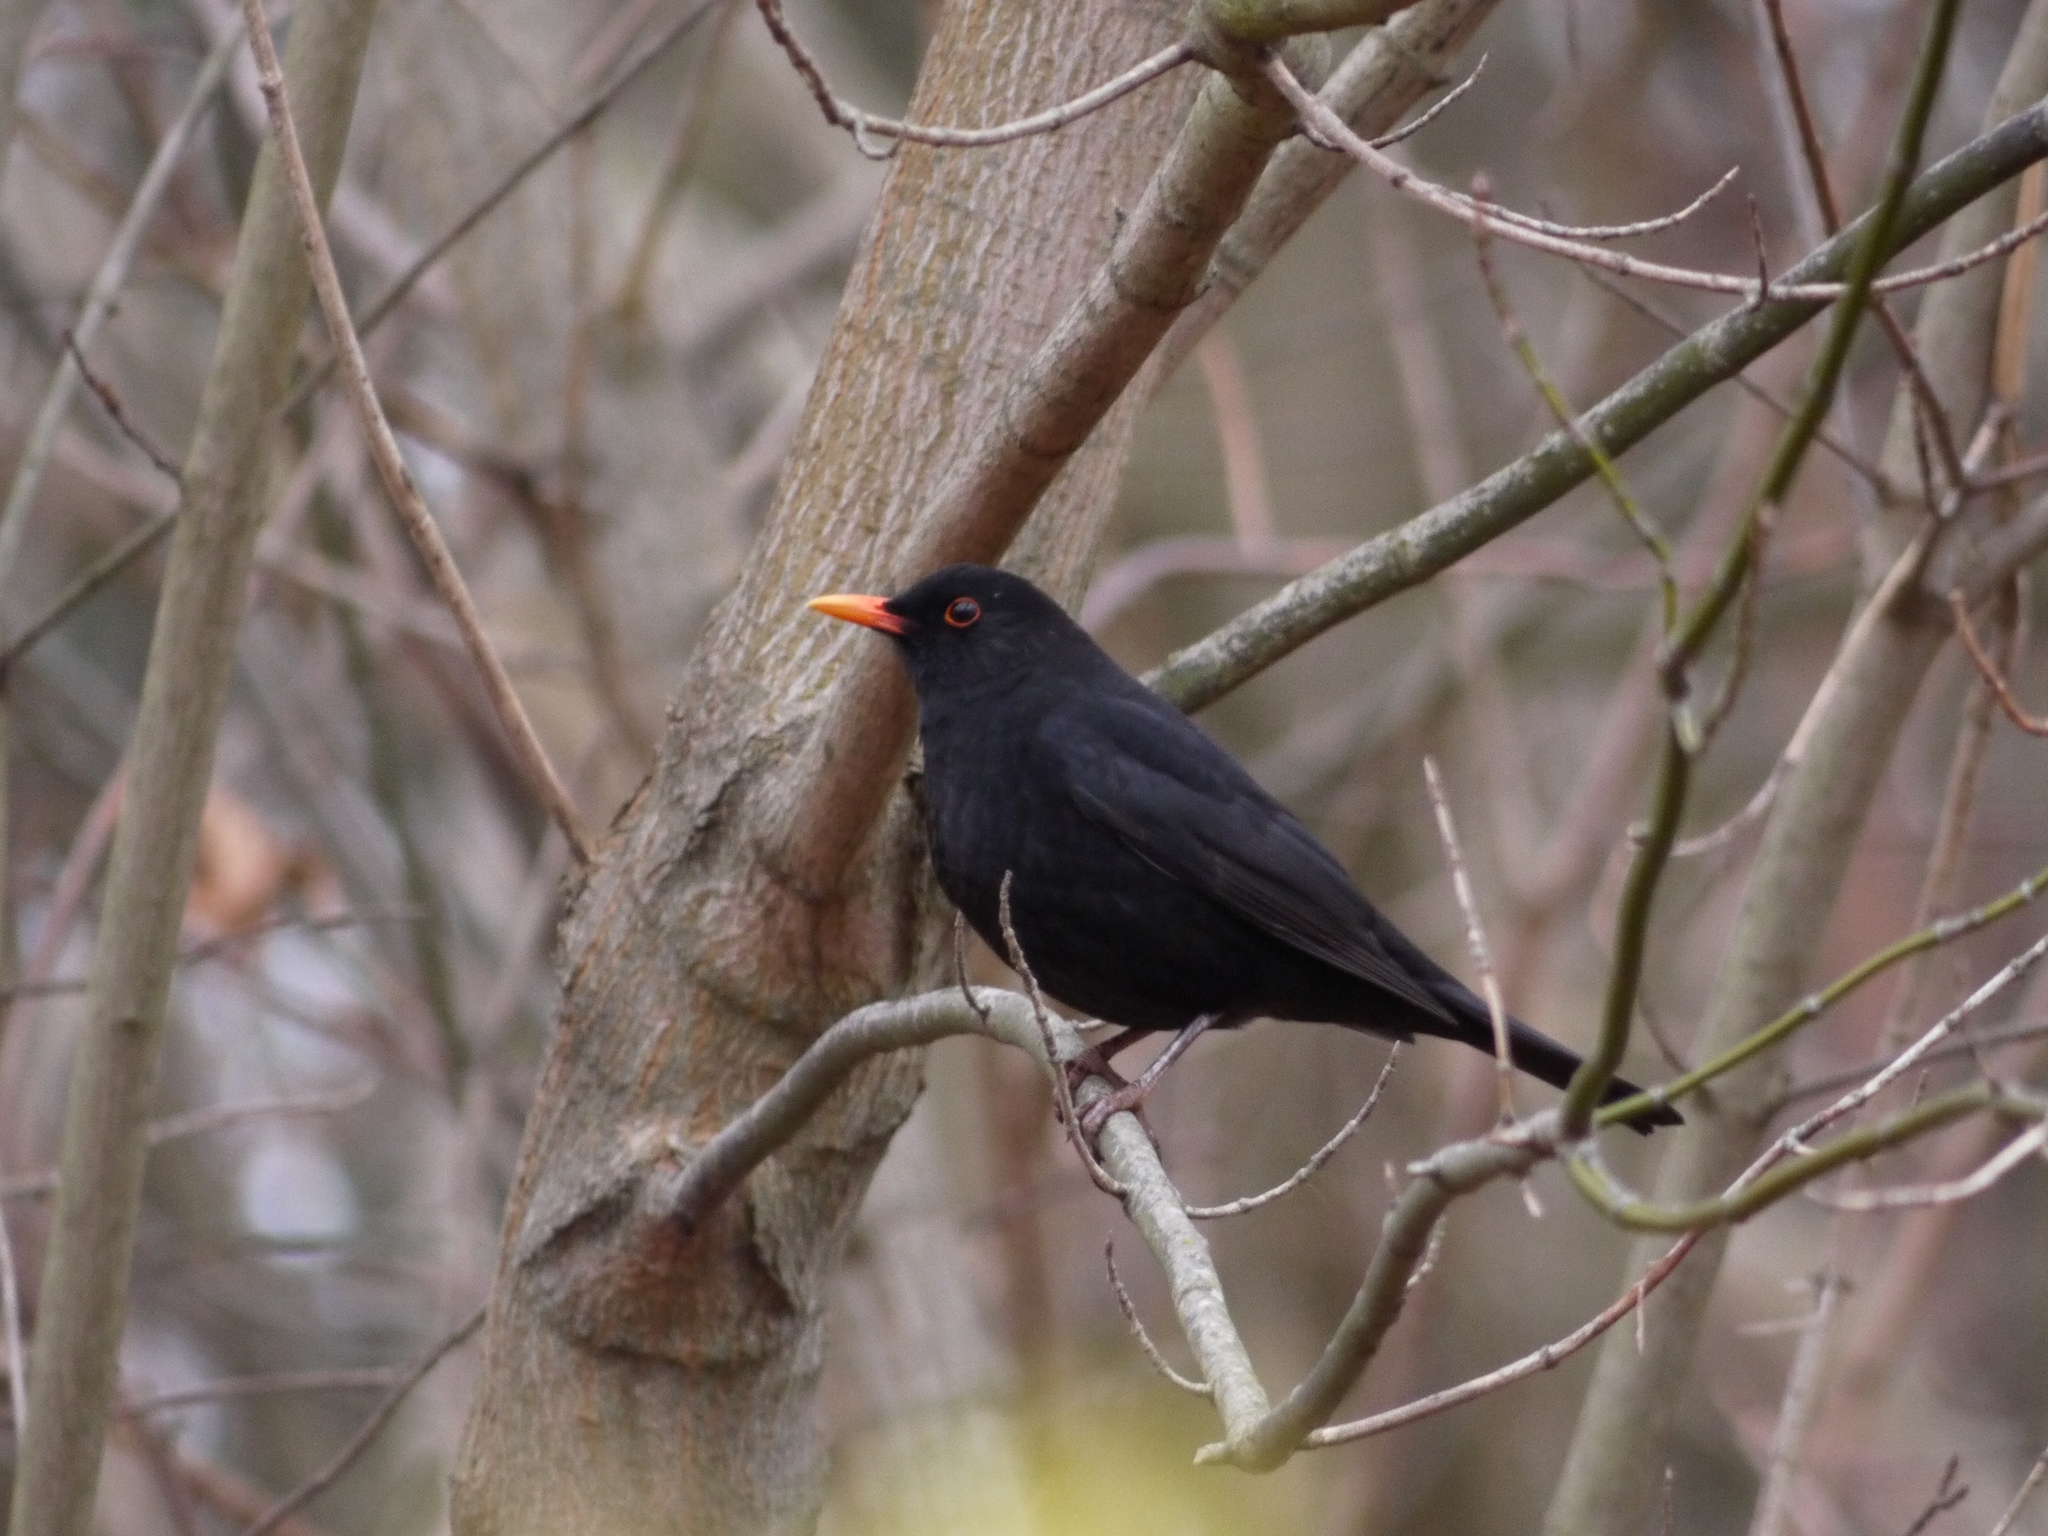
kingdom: Animalia
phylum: Chordata
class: Aves
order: Passeriformes
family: Turdidae
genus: Turdus
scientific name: Turdus merula
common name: Common blackbird
